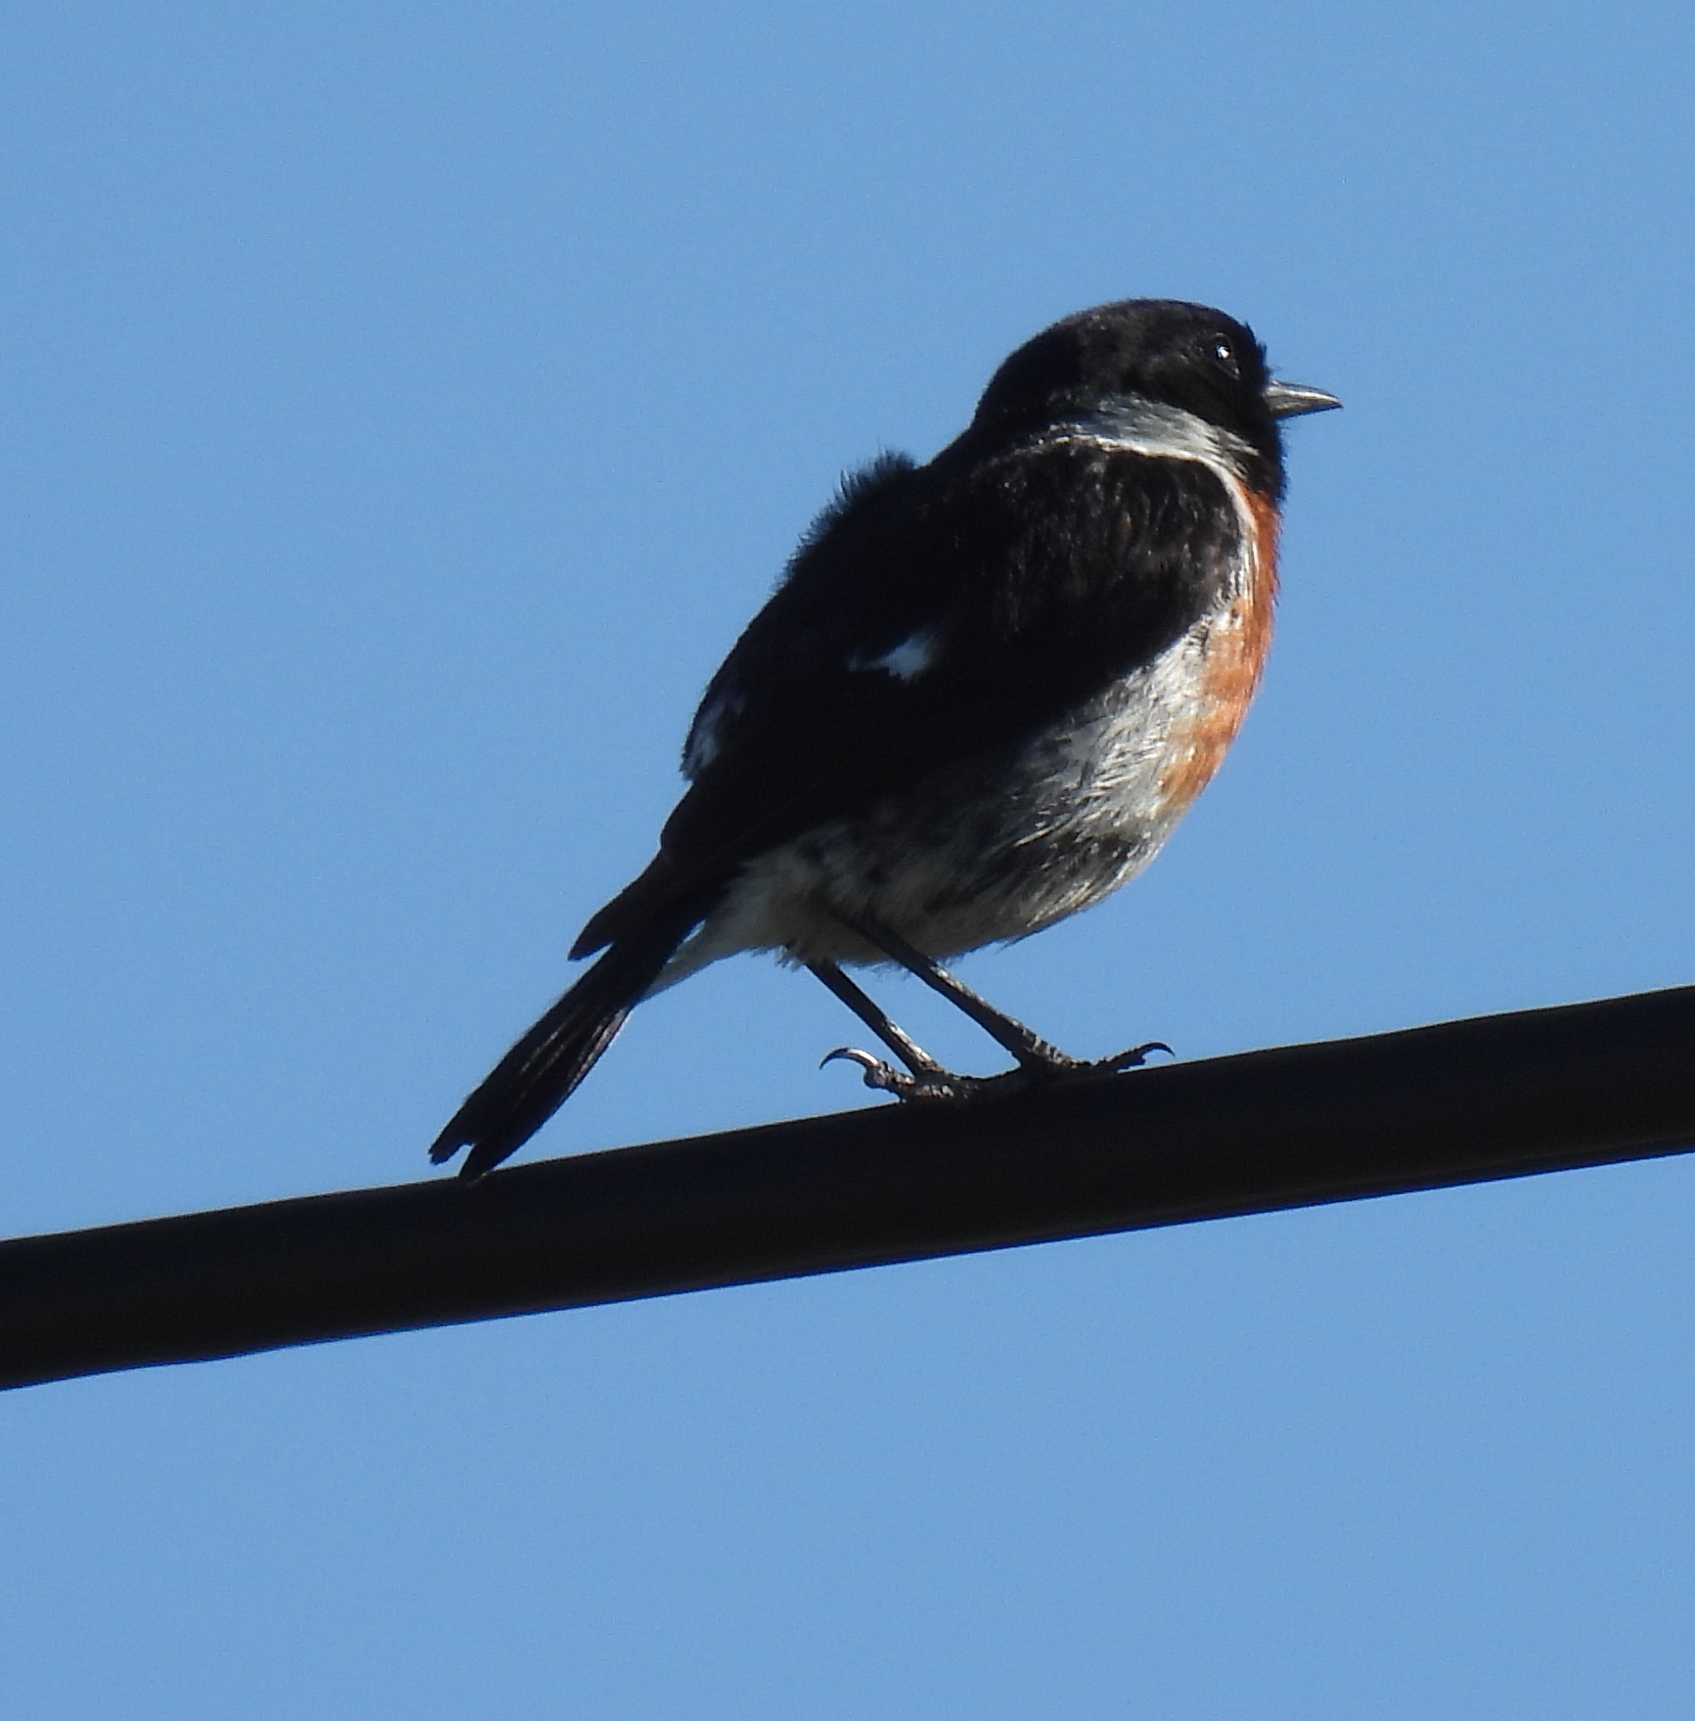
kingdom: Animalia
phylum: Chordata
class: Aves
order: Passeriformes
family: Muscicapidae
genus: Saxicola
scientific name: Saxicola torquatus
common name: African stonechat
